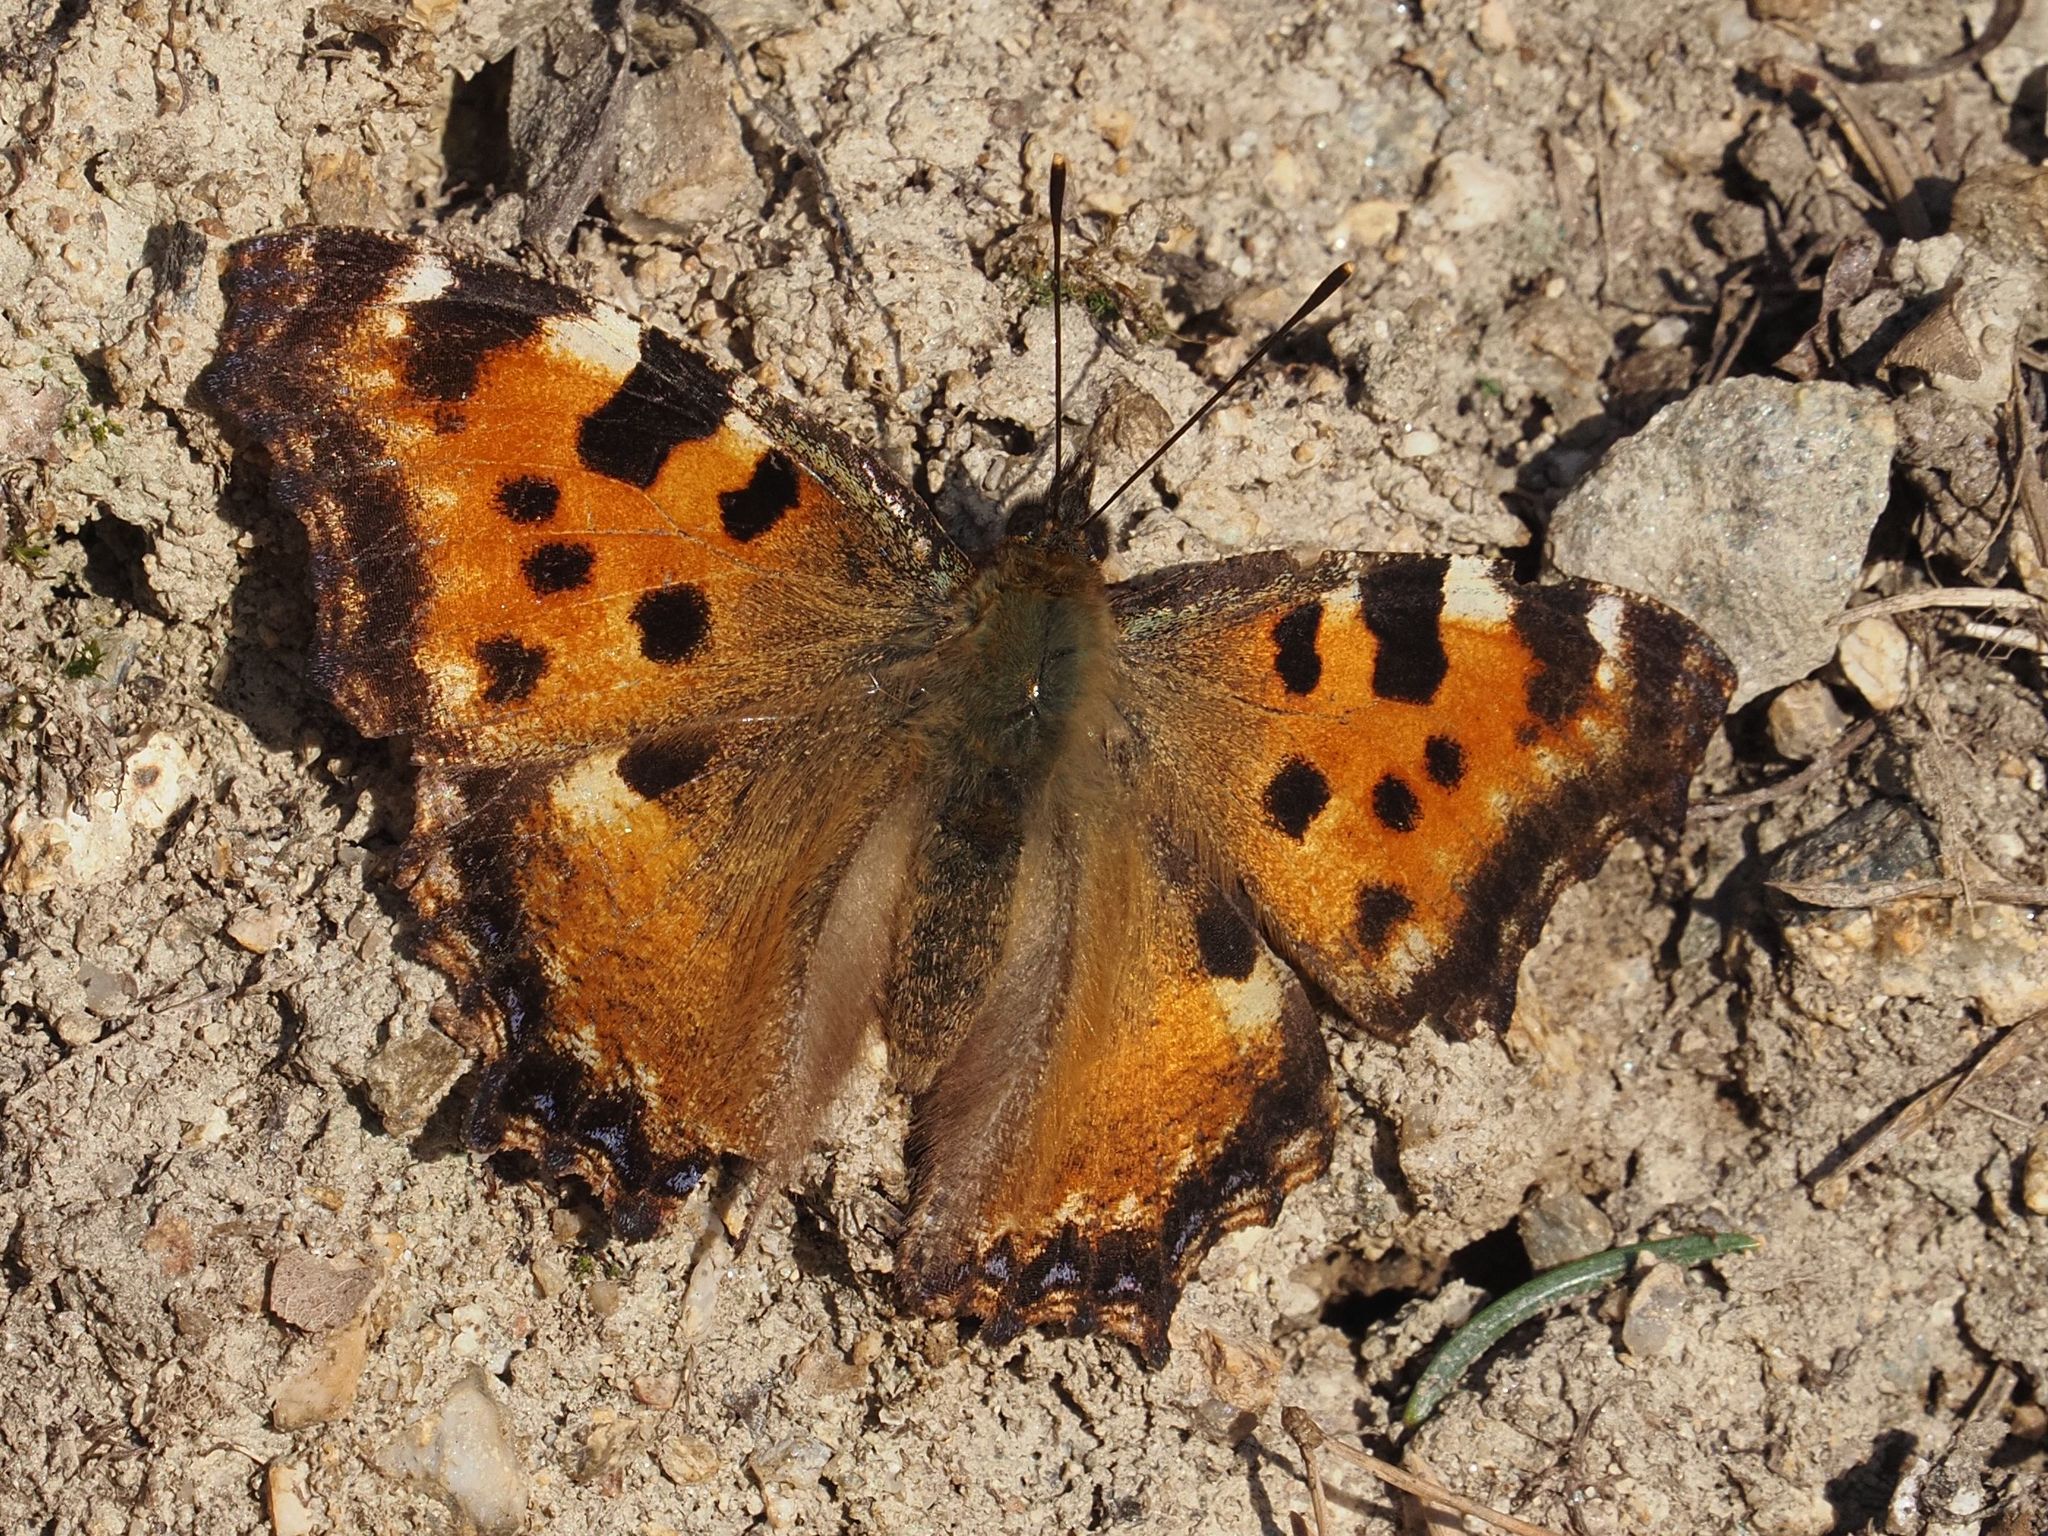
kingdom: Animalia
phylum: Arthropoda
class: Insecta
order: Lepidoptera
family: Nymphalidae
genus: Nymphalis
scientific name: Nymphalis polychloros
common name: Large tortoiseshell
